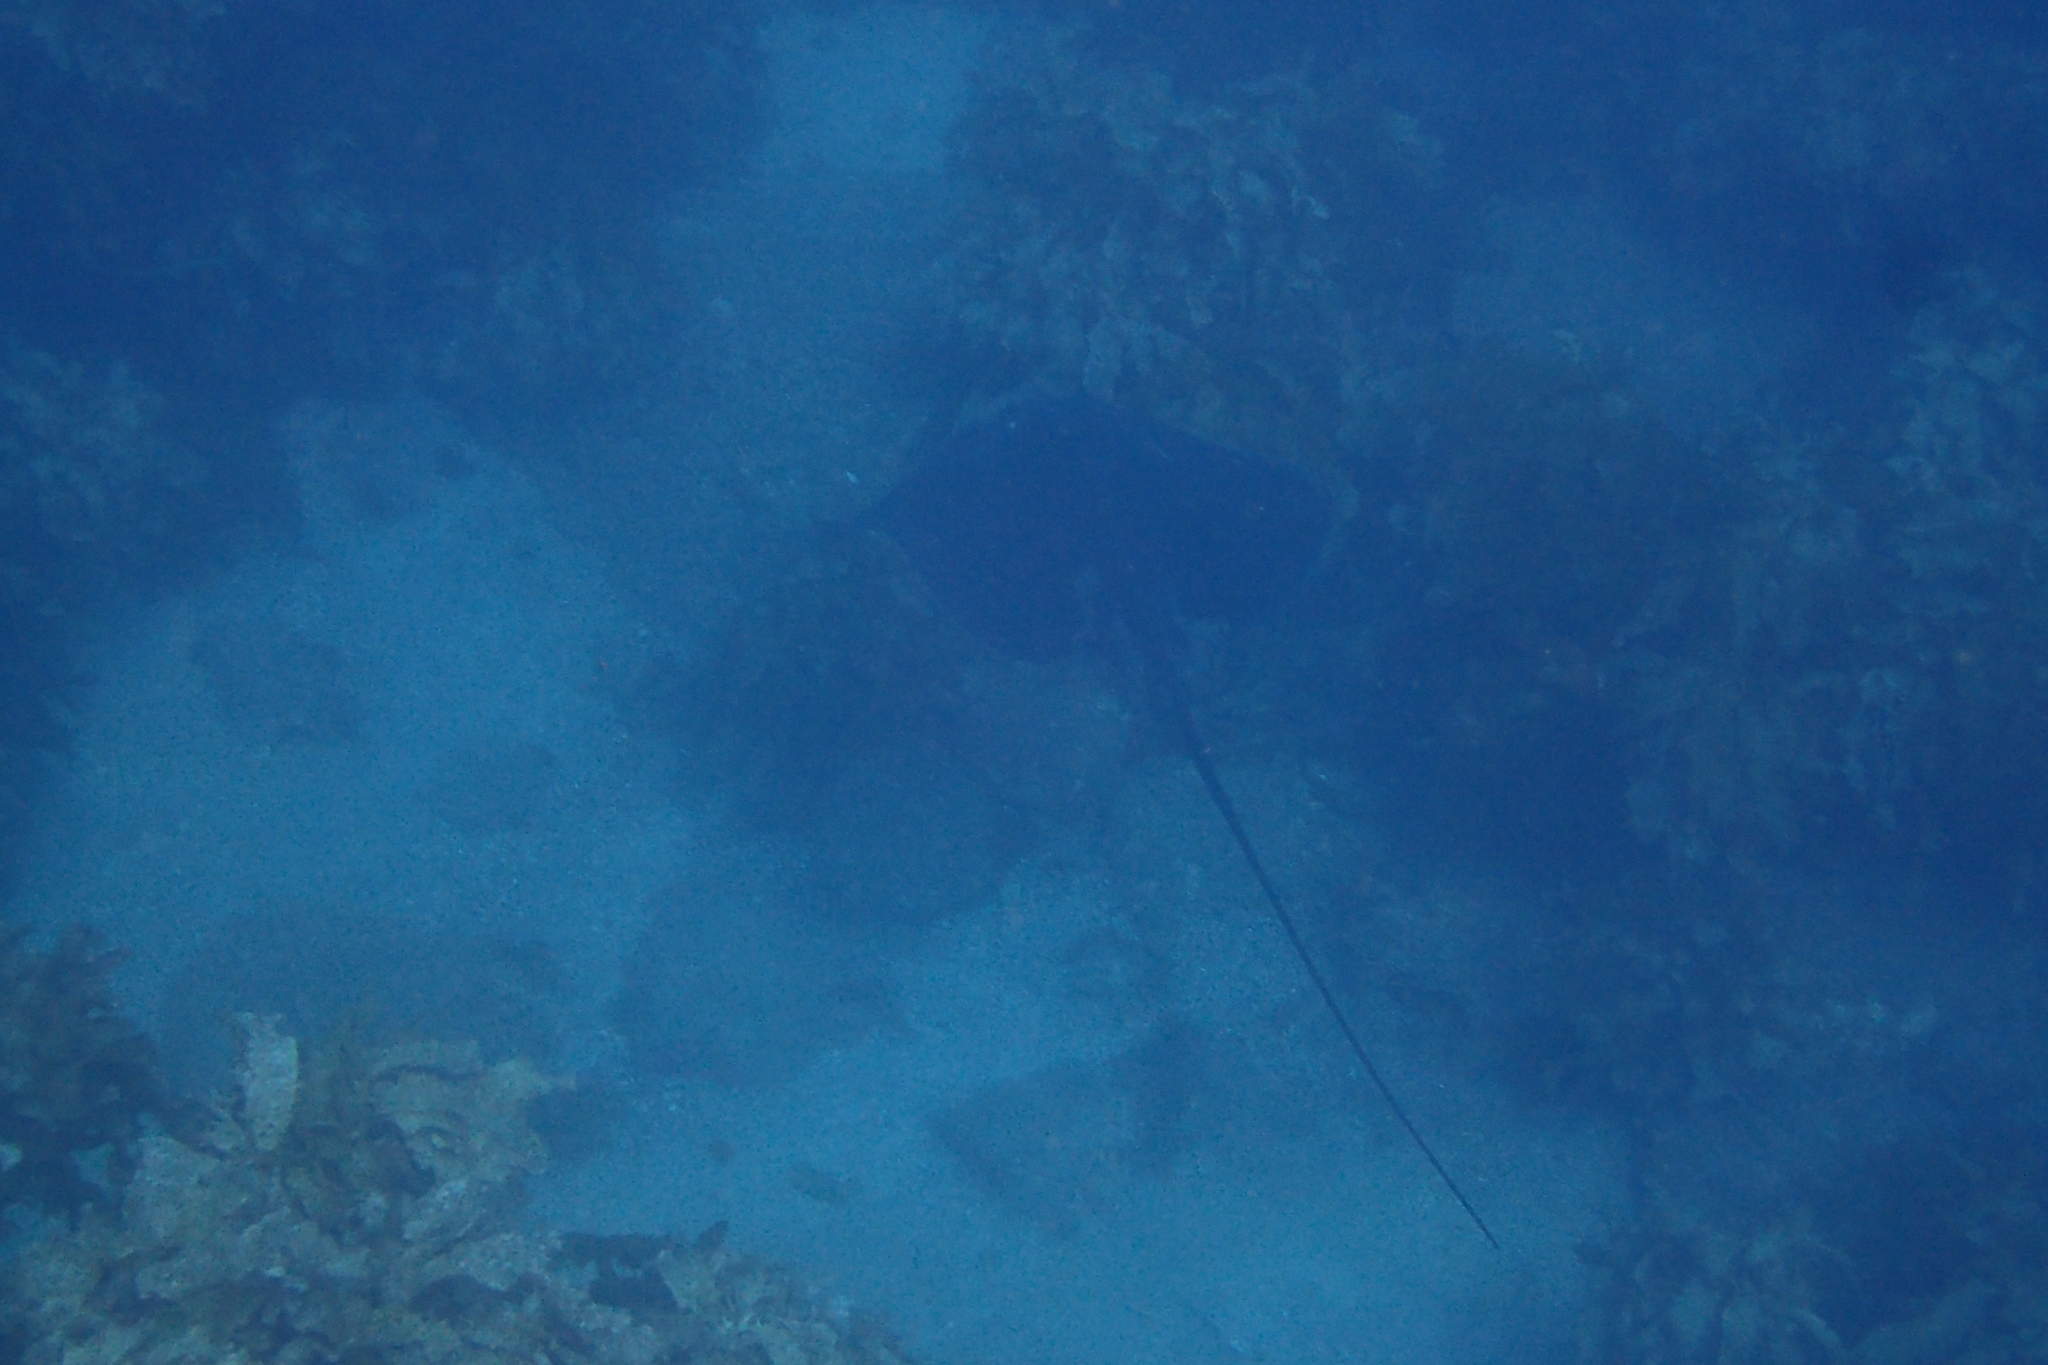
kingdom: Animalia
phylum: Chordata
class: Elasmobranchii
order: Myliobatiformes
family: Dasyatidae
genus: Bathytoshia
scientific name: Bathytoshia lata
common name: Brown stingray
